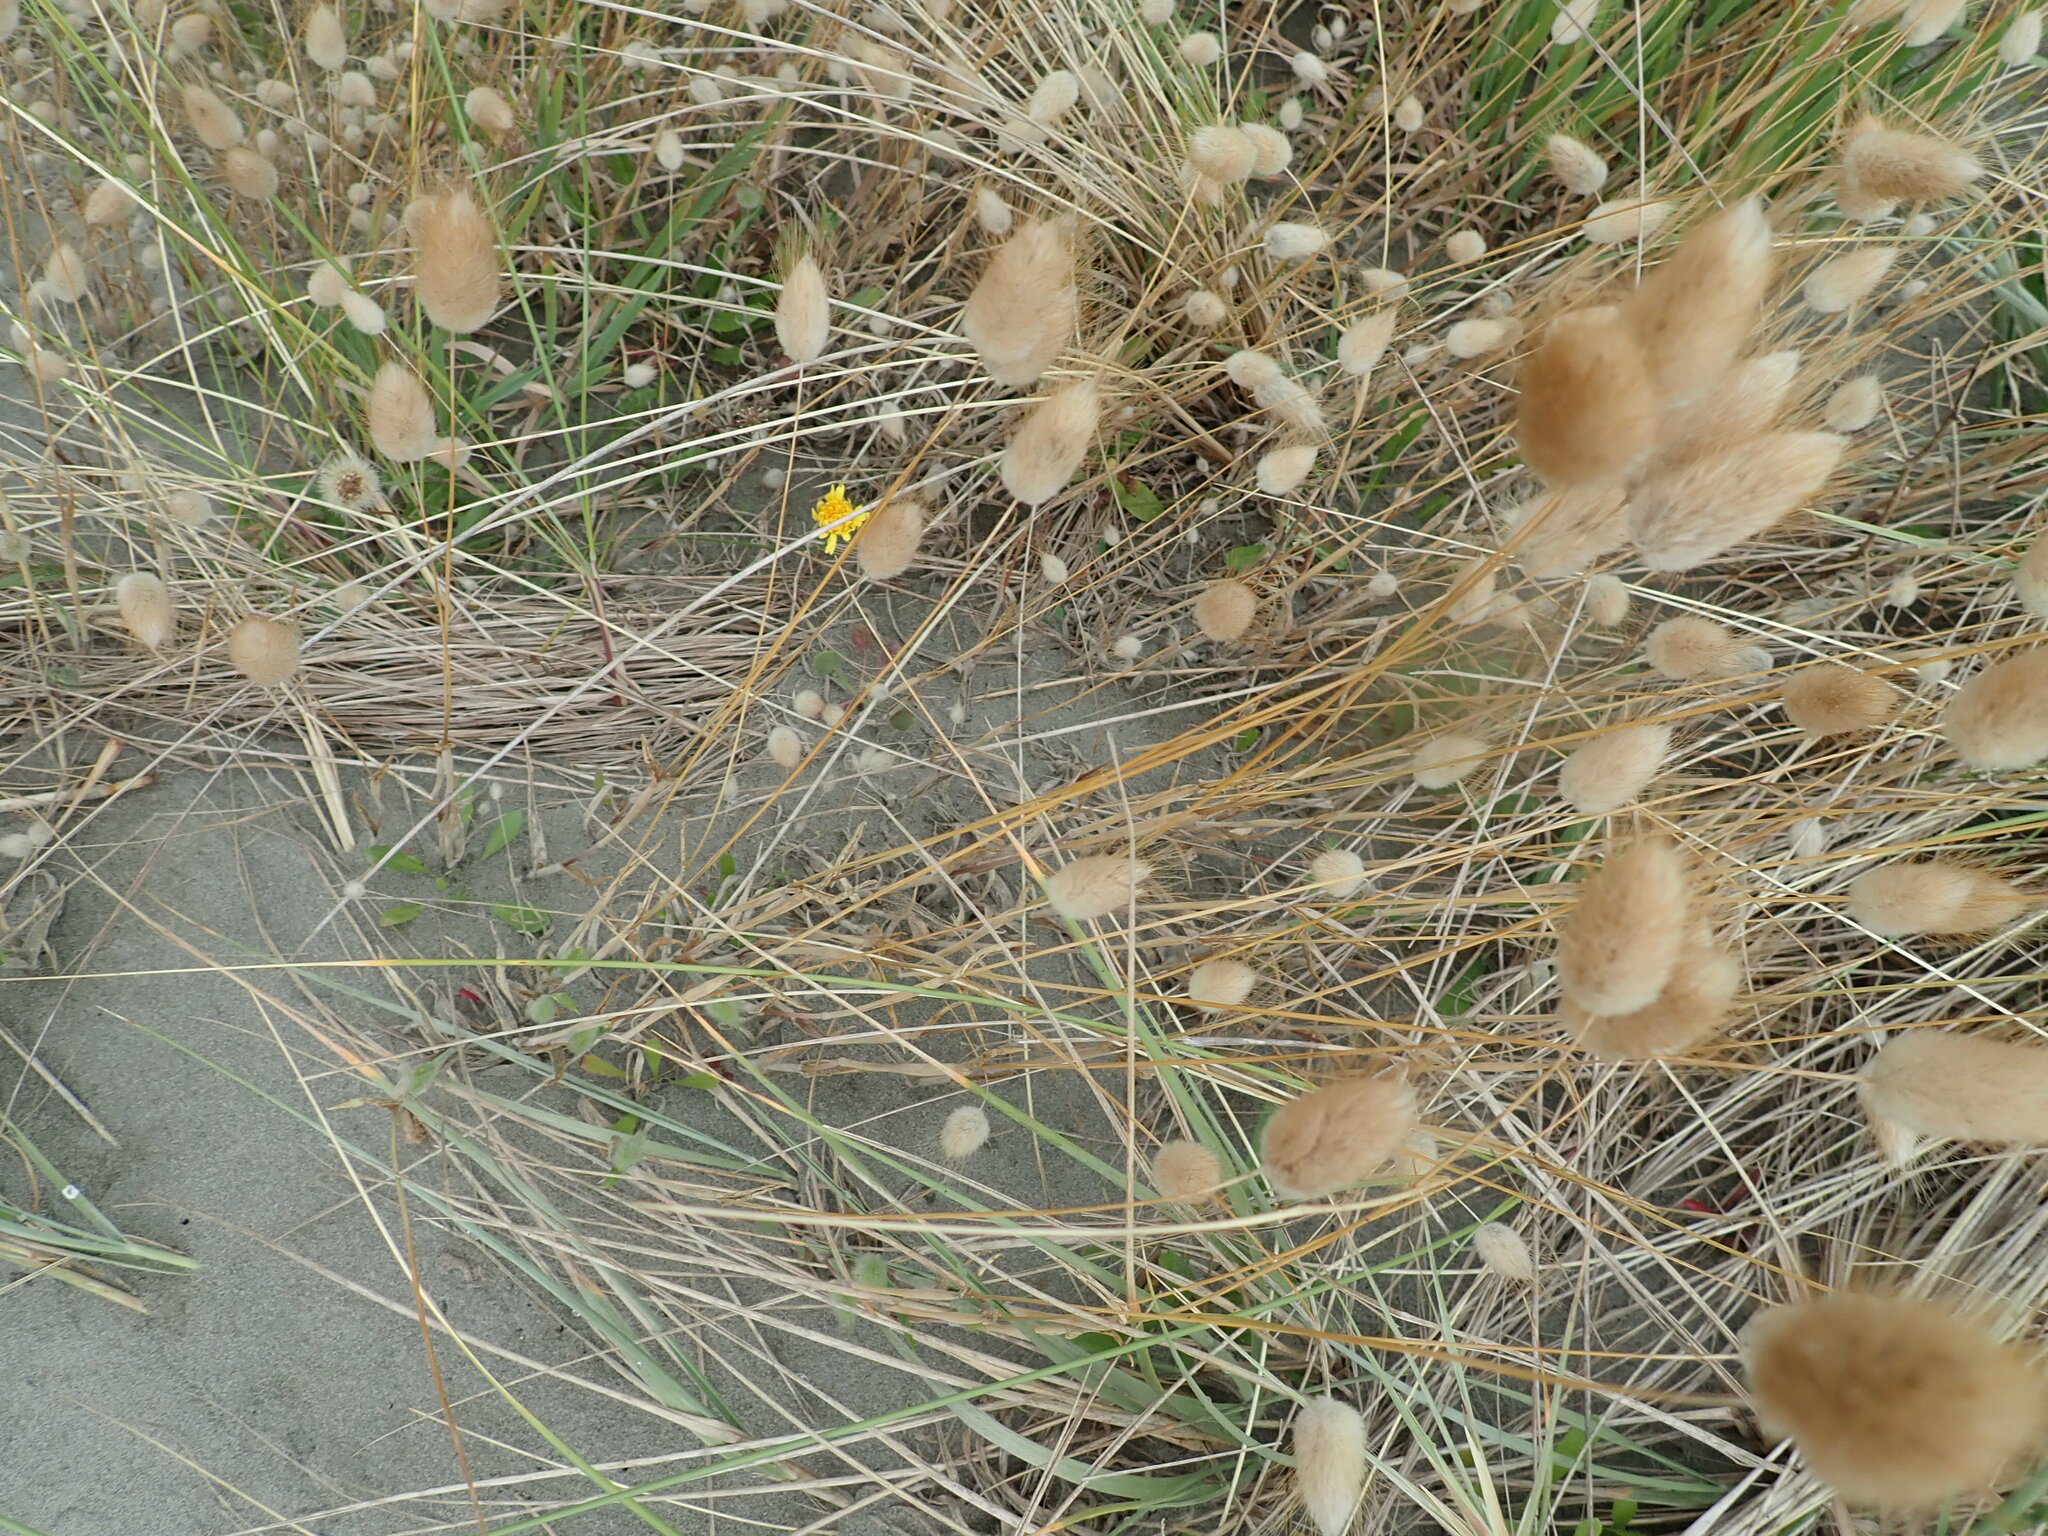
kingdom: Plantae
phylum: Tracheophyta
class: Liliopsida
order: Poales
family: Poaceae
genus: Lagurus
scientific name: Lagurus ovatus
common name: Hare's-tail
